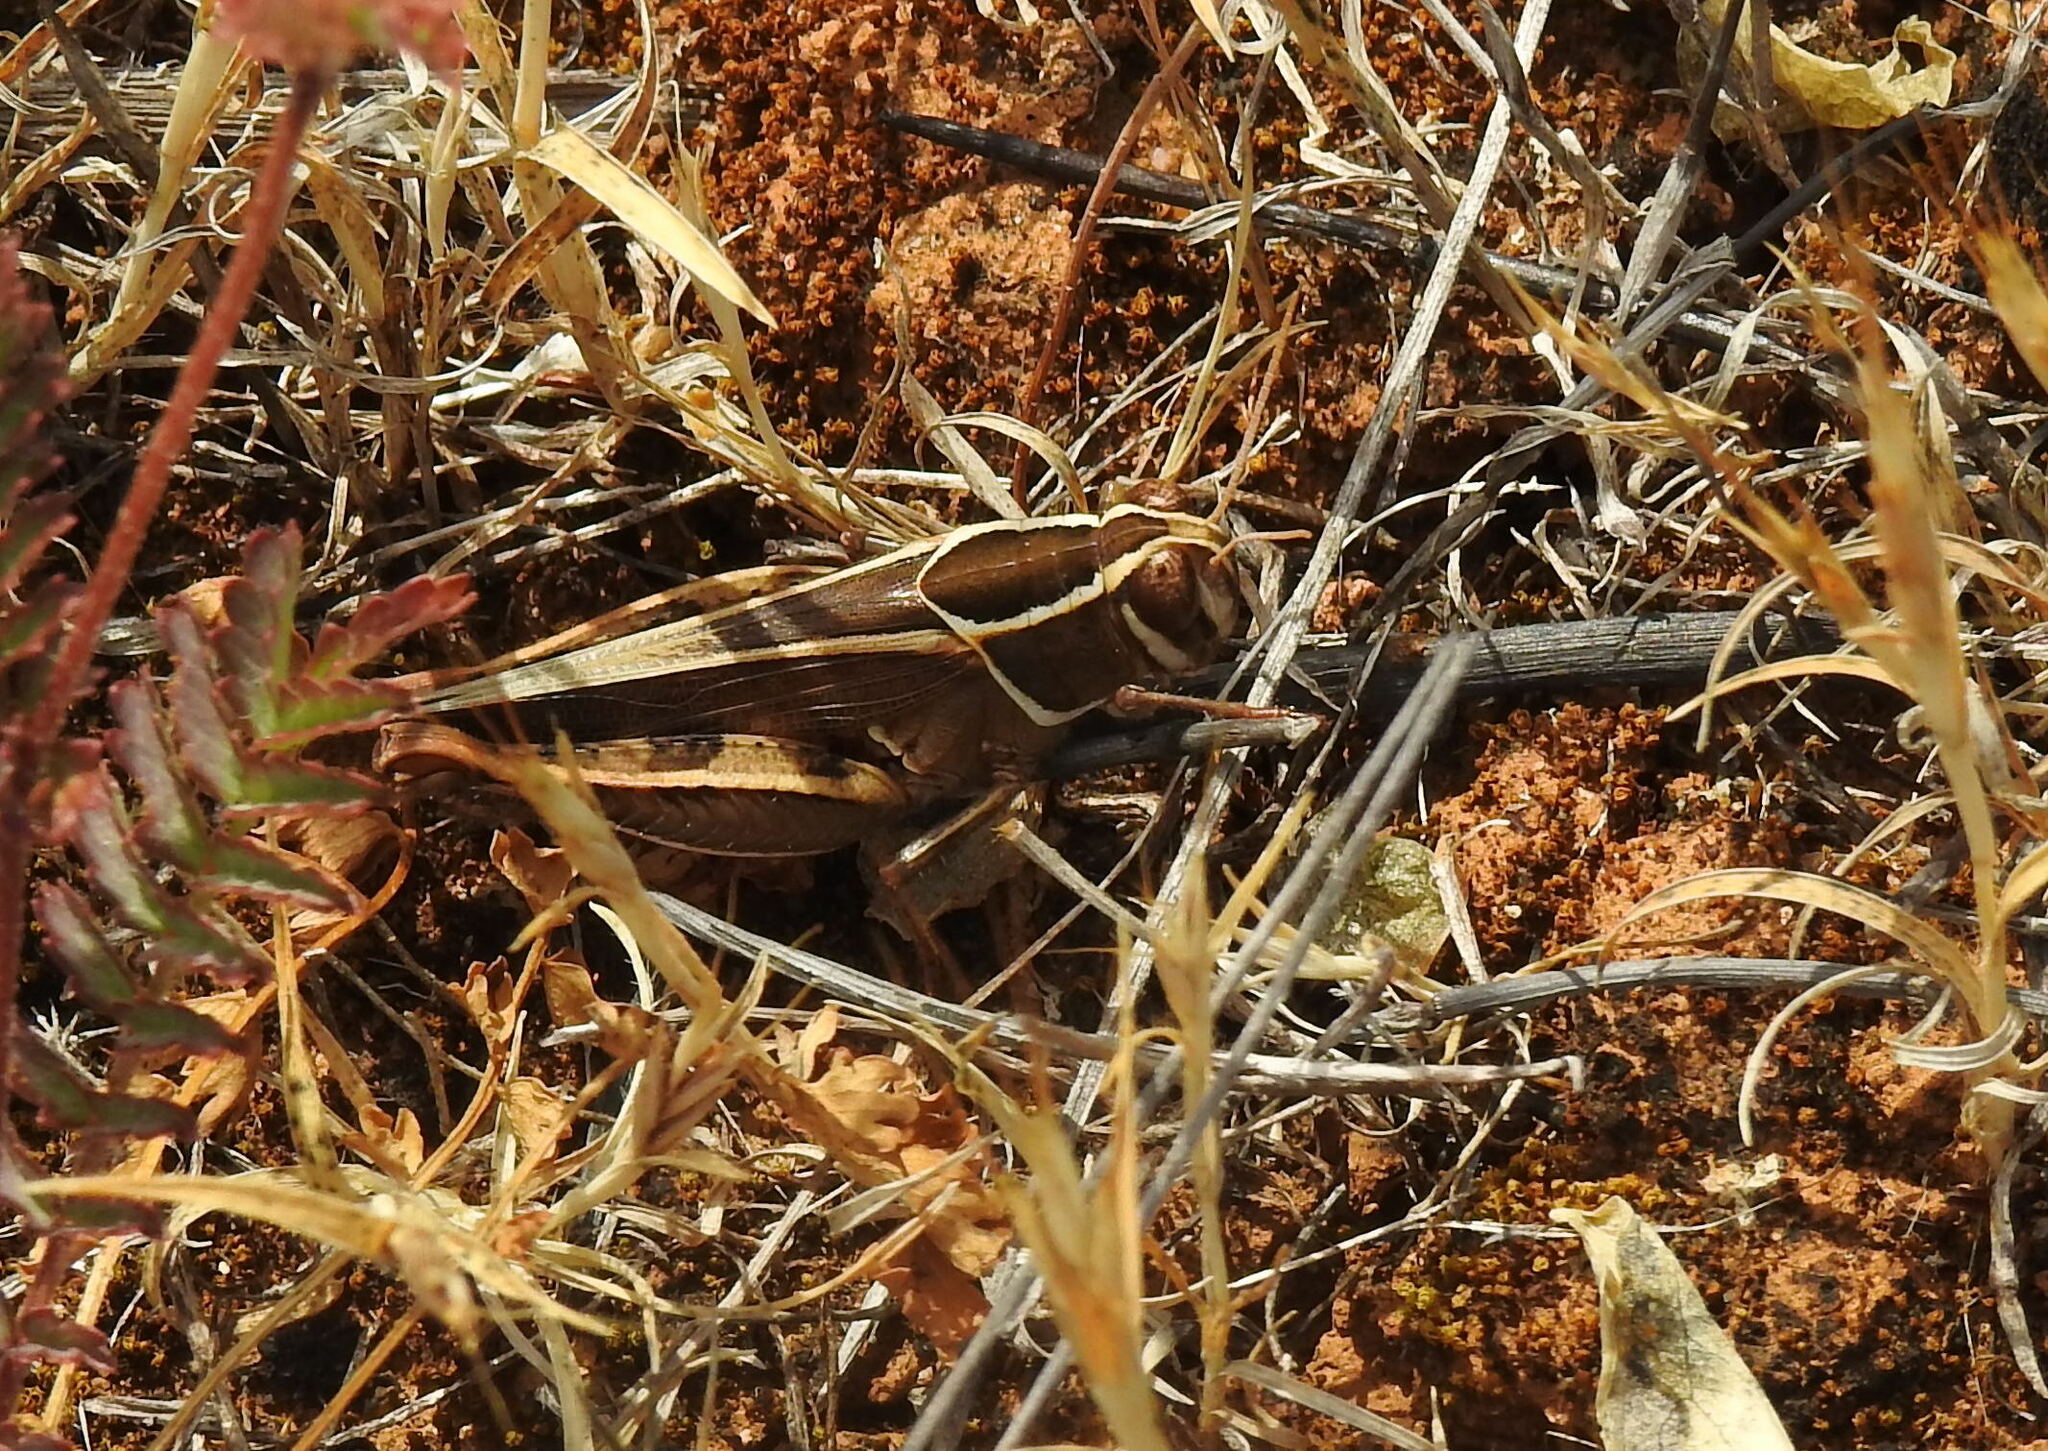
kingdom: Animalia
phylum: Arthropoda
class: Insecta
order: Orthoptera
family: Acrididae
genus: Calliptamus
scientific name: Calliptamus barbarus
